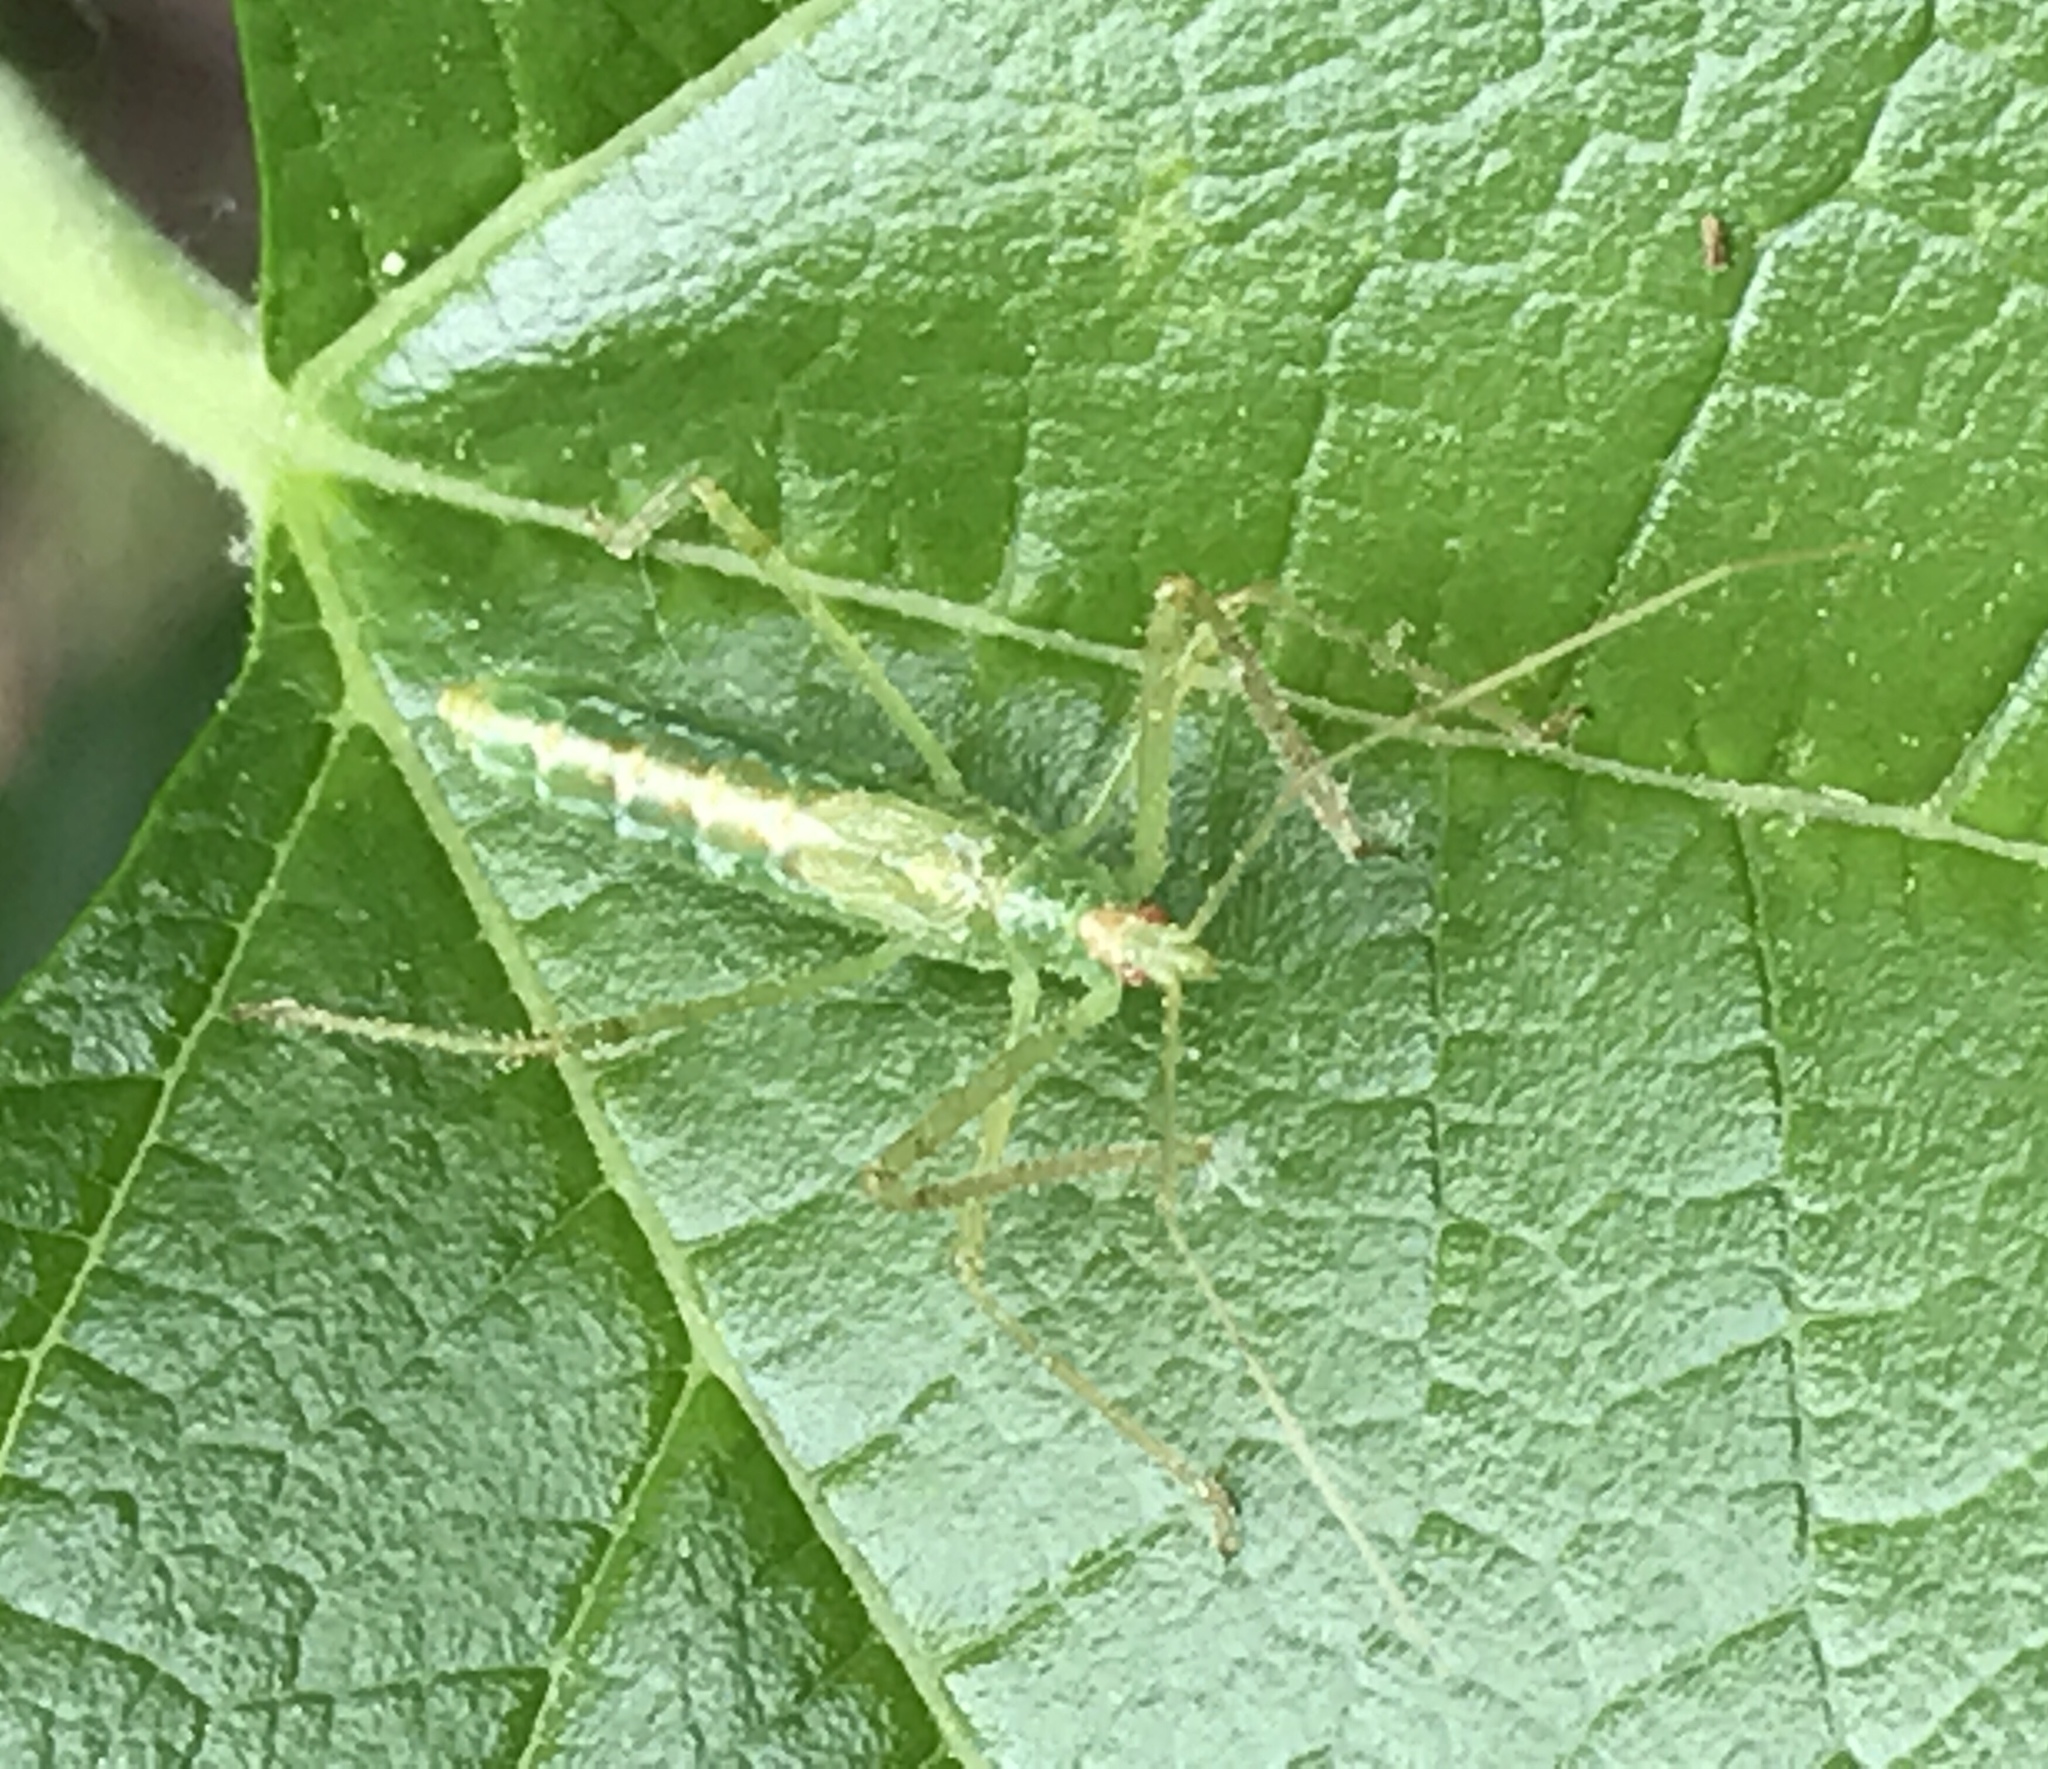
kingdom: Animalia
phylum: Arthropoda
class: Insecta
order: Hemiptera
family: Reduviidae
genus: Zelus
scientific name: Zelus luridus
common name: Pale green assassin bug
